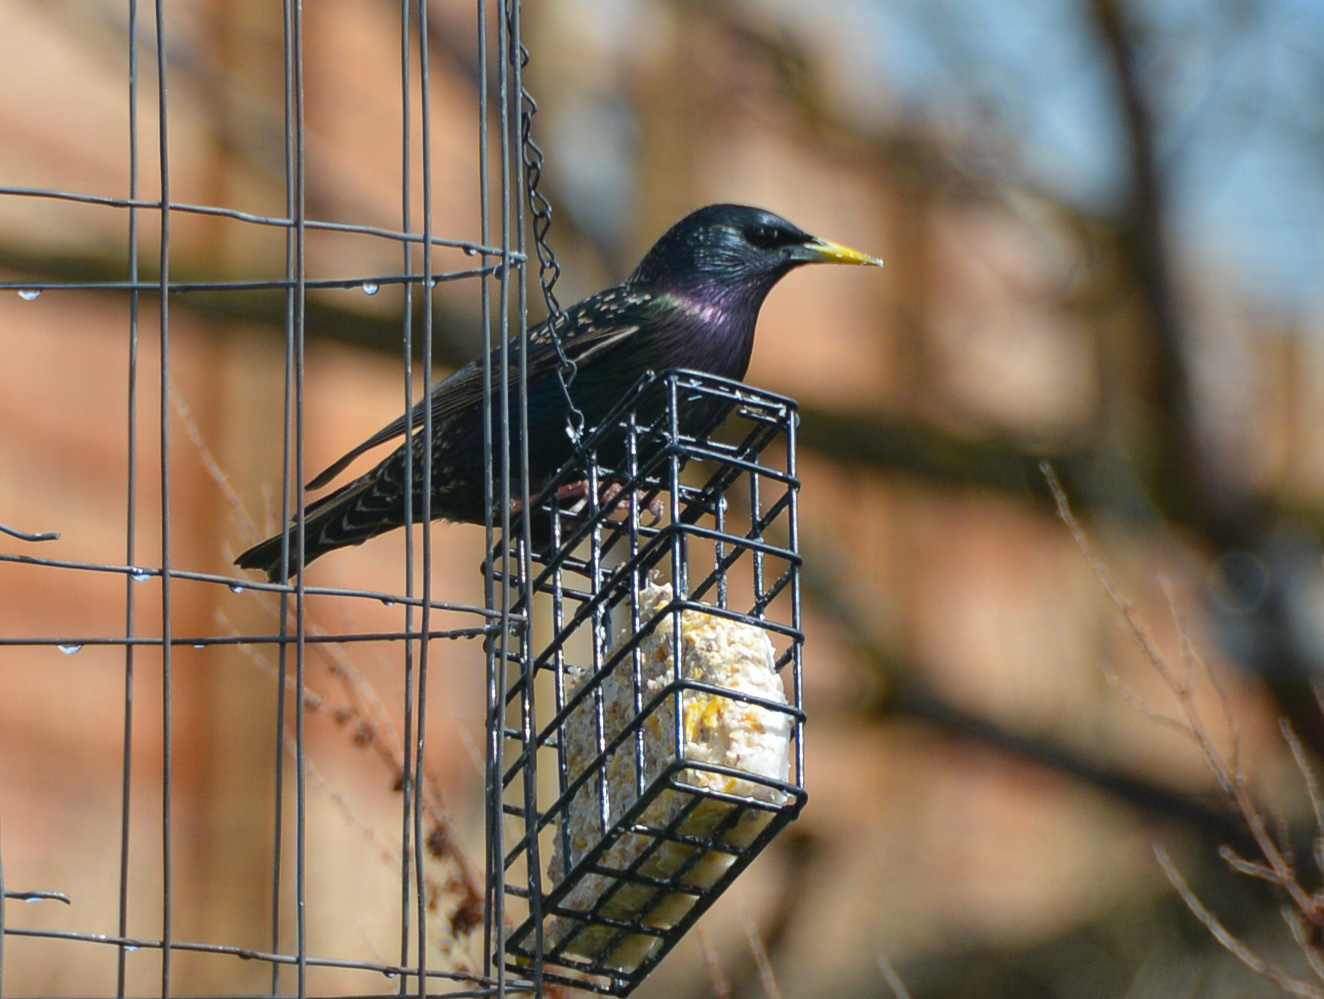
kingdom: Animalia
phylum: Chordata
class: Aves
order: Passeriformes
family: Sturnidae
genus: Sturnus
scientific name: Sturnus vulgaris
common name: Common starling
